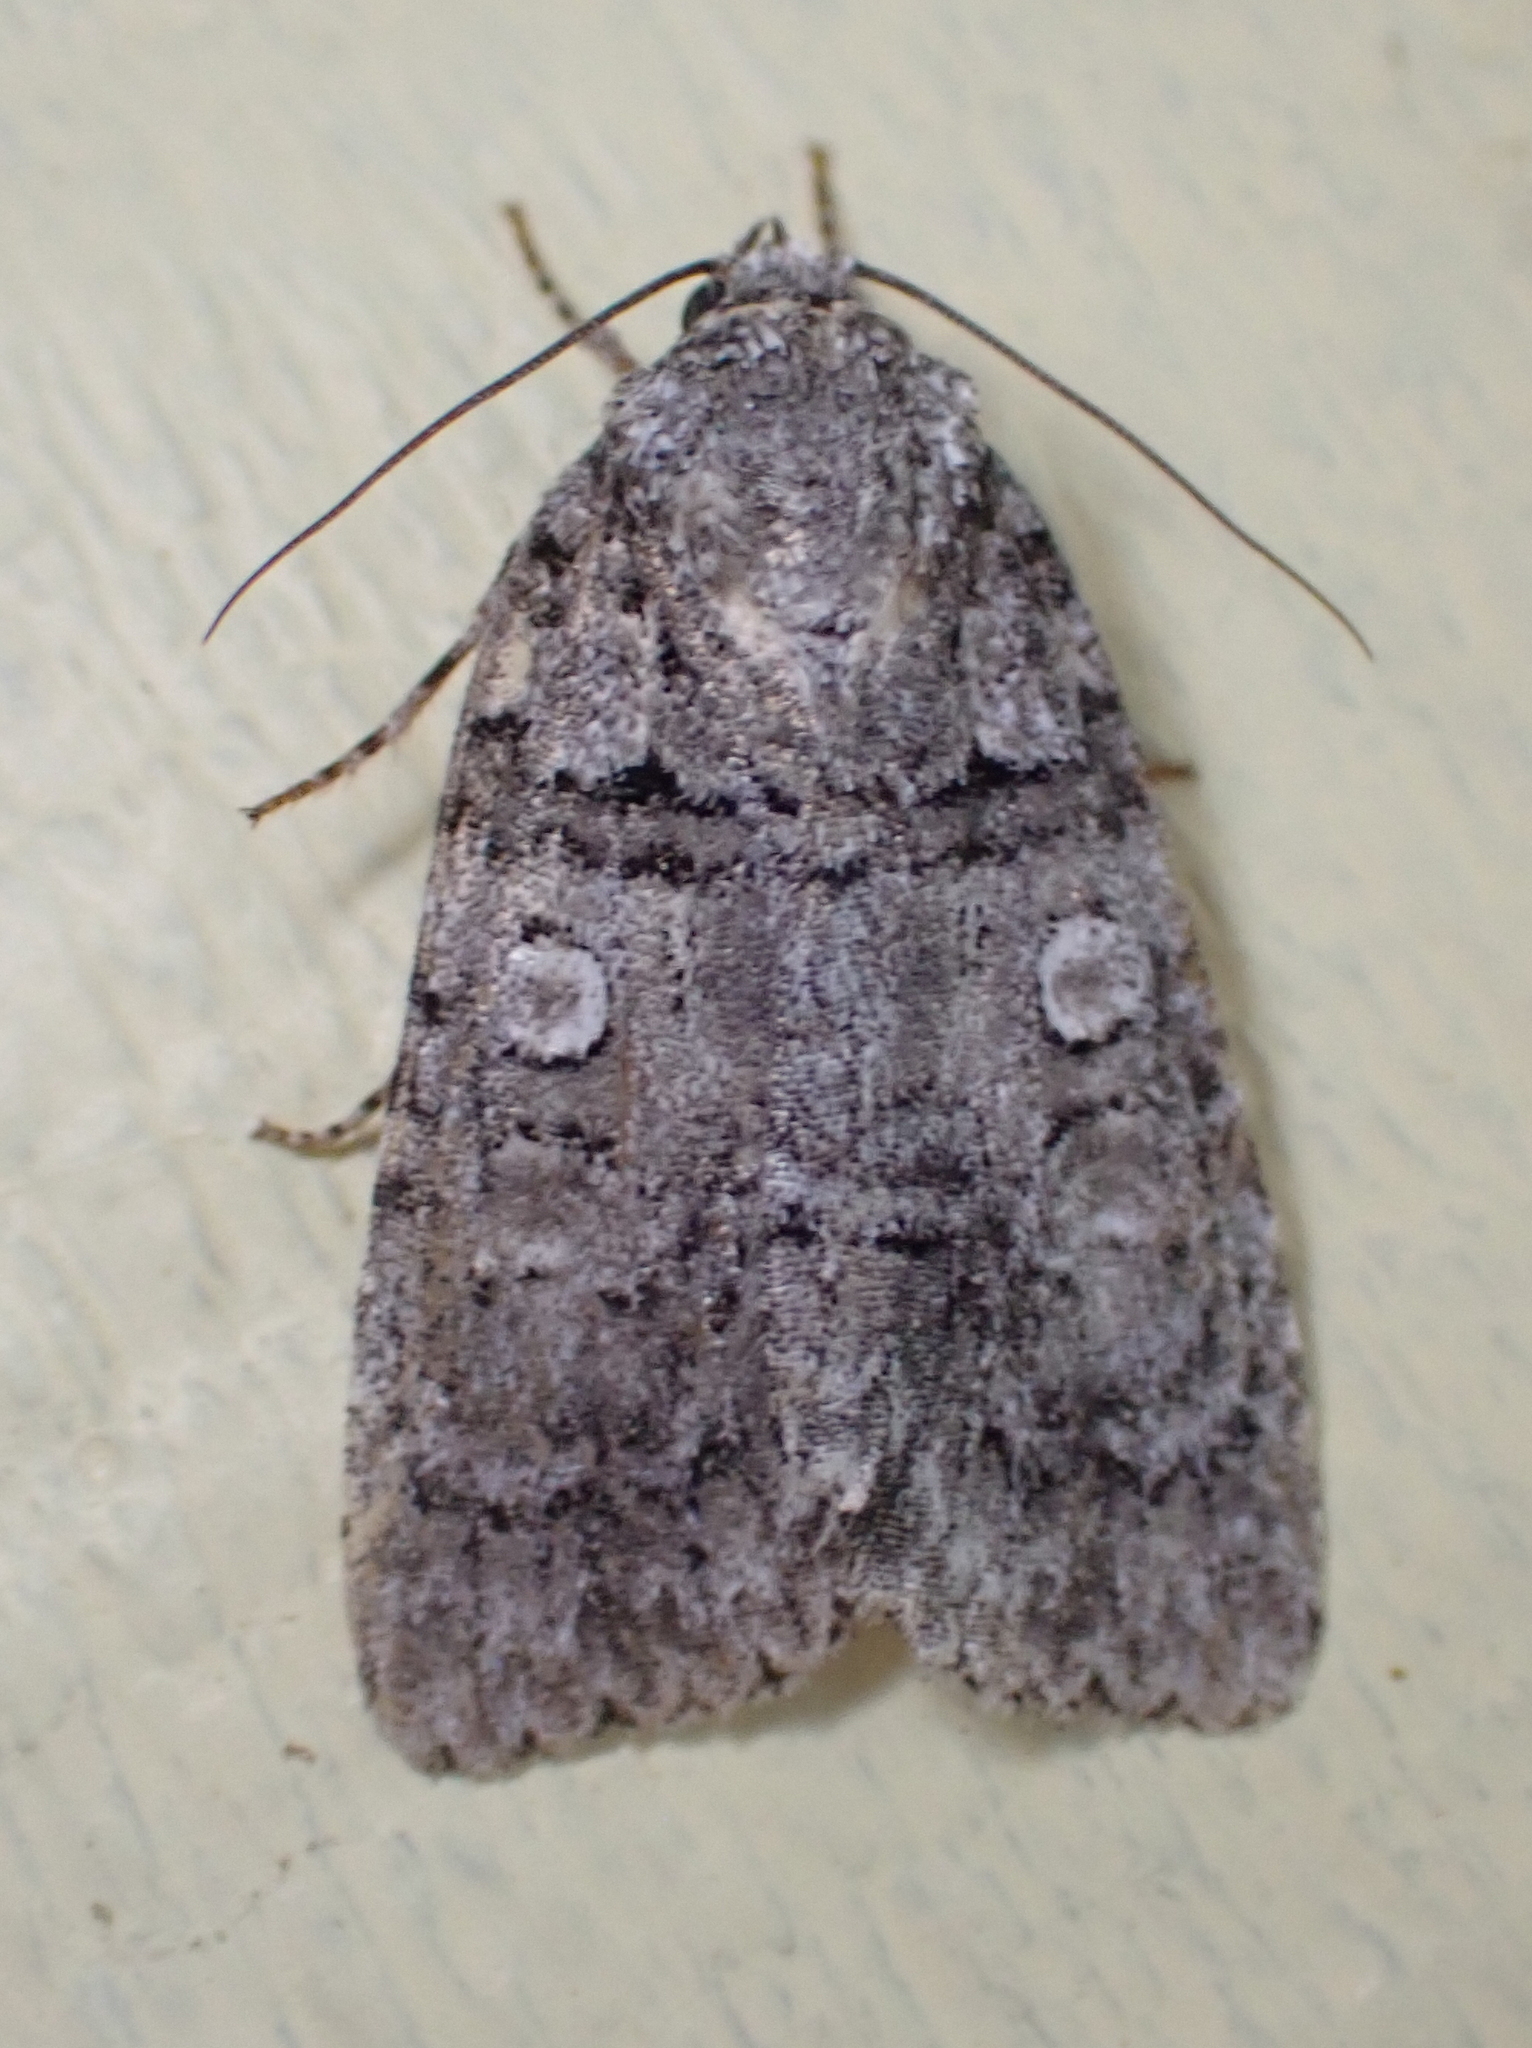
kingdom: Animalia
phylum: Arthropoda
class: Insecta
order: Lepidoptera
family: Noctuidae
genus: Acronicta
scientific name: Acronicta tristis
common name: Sad dagger
